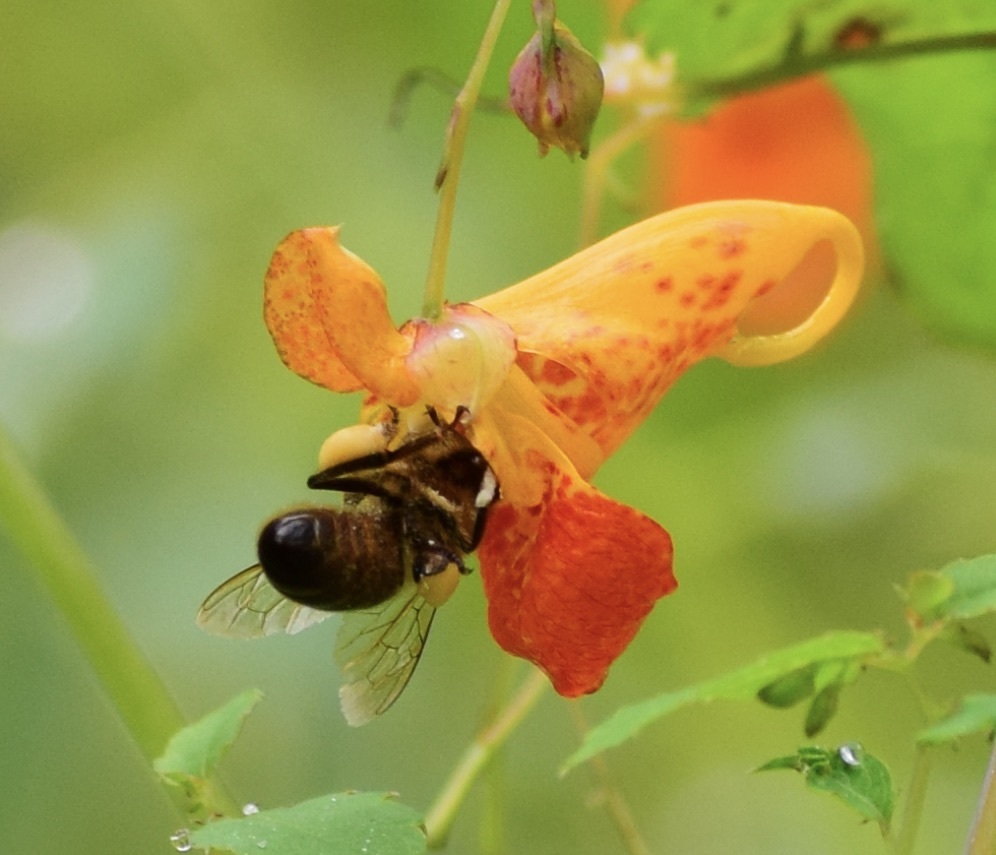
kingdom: Animalia
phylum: Arthropoda
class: Insecta
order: Hymenoptera
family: Apidae
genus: Apis
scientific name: Apis mellifera
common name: Honey bee
